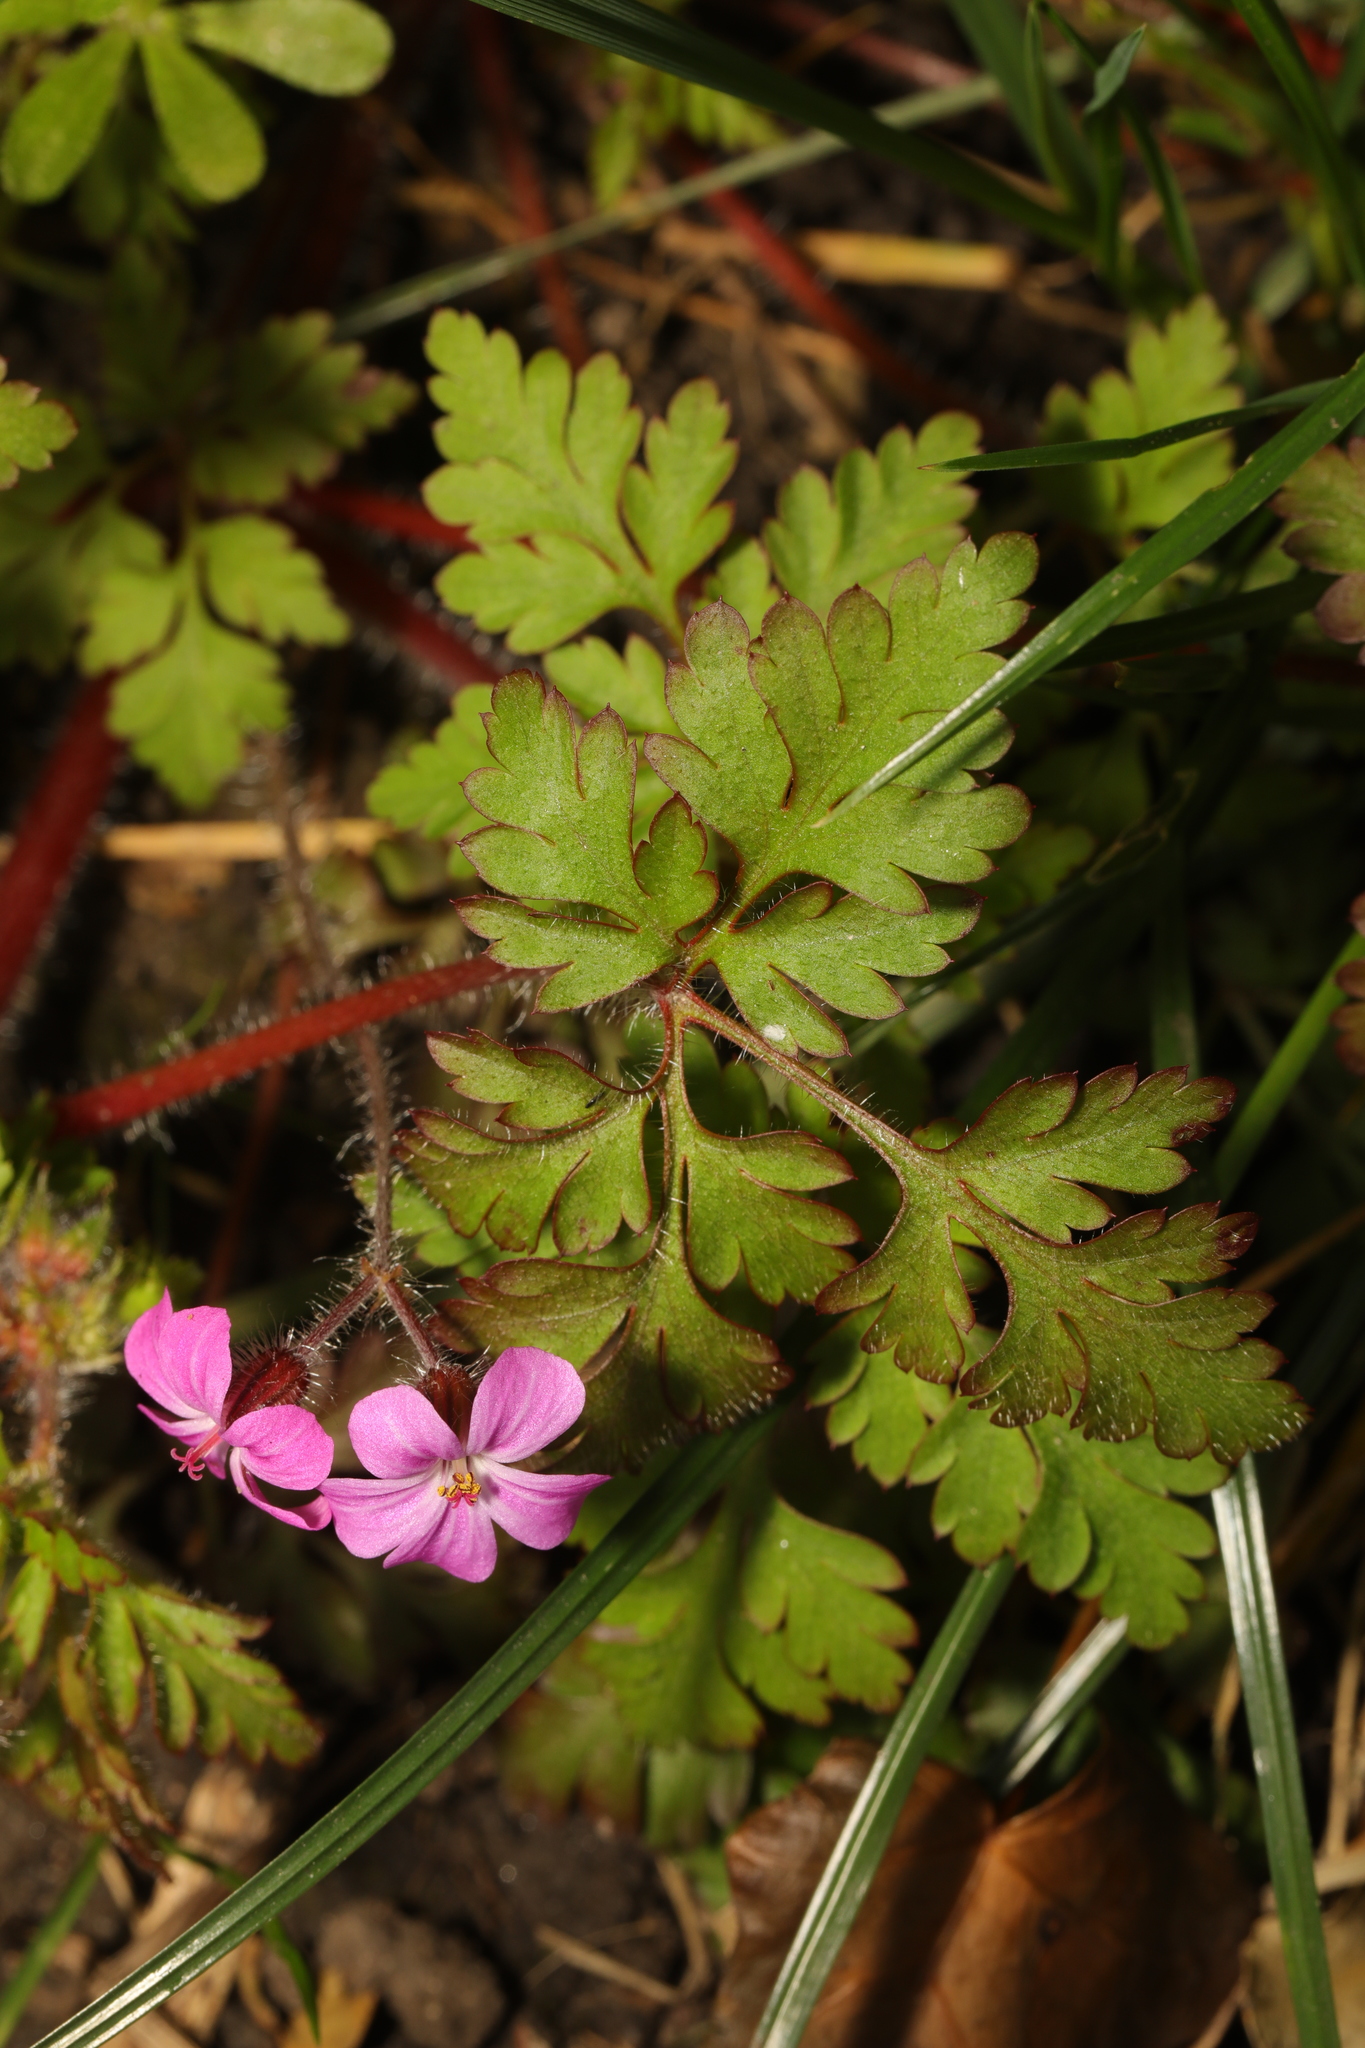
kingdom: Plantae
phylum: Tracheophyta
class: Magnoliopsida
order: Geraniales
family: Geraniaceae
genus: Geranium
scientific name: Geranium robertianum
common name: Herb-robert
